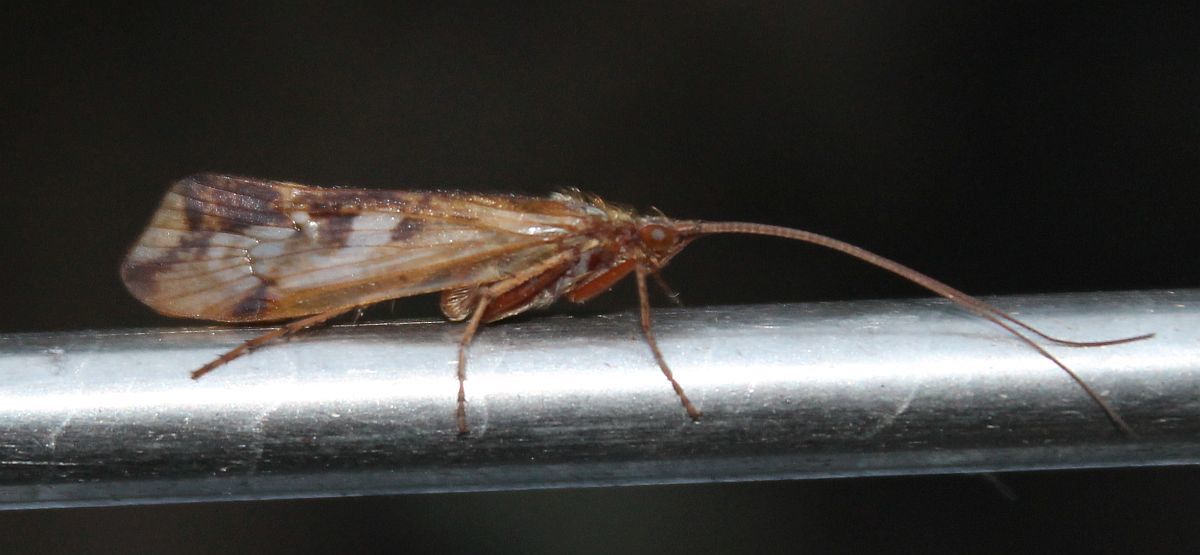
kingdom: Animalia
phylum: Arthropoda
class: Insecta
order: Trichoptera
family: Limnephilidae
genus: Limnephilus
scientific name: Limnephilus lunatus
